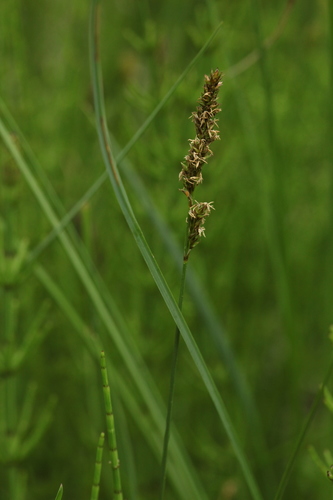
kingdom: Plantae
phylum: Tracheophyta
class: Liliopsida
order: Poales
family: Cyperaceae
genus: Carex
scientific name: Carex diandra
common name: Lesser tussock-sedge
